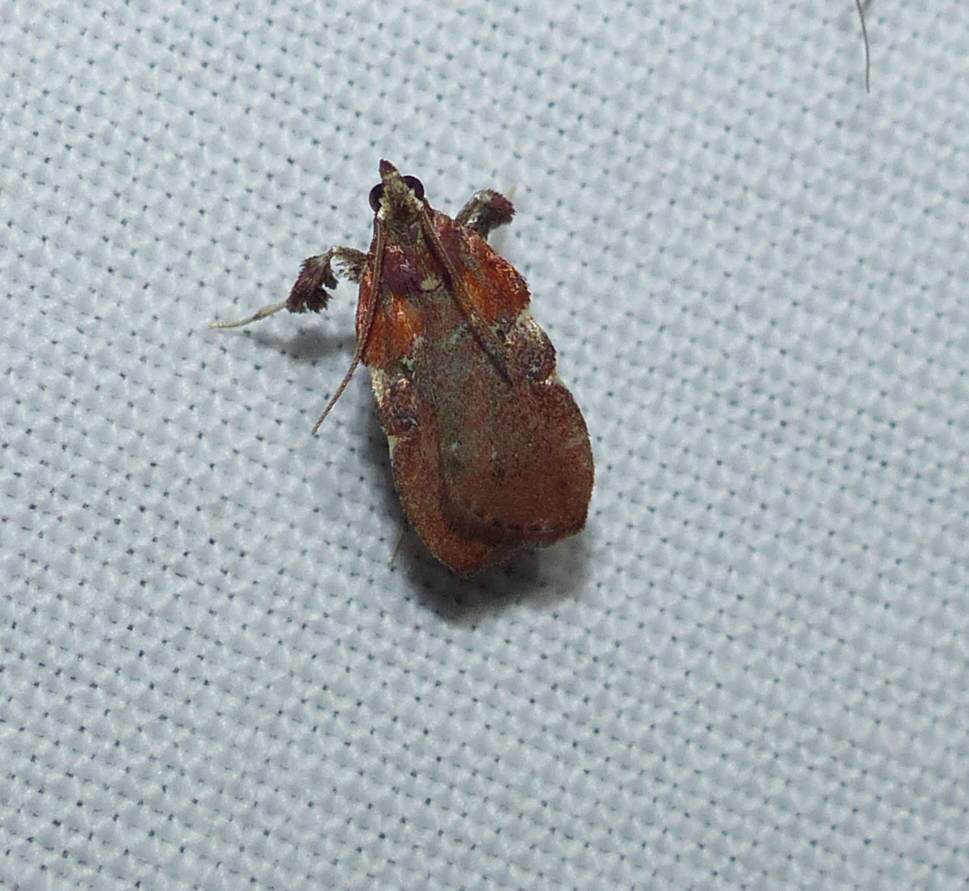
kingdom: Animalia
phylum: Arthropoda
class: Insecta
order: Lepidoptera
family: Pyralidae
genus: Galasa
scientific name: Galasa nigrinodis
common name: Boxwood leaftier moth
